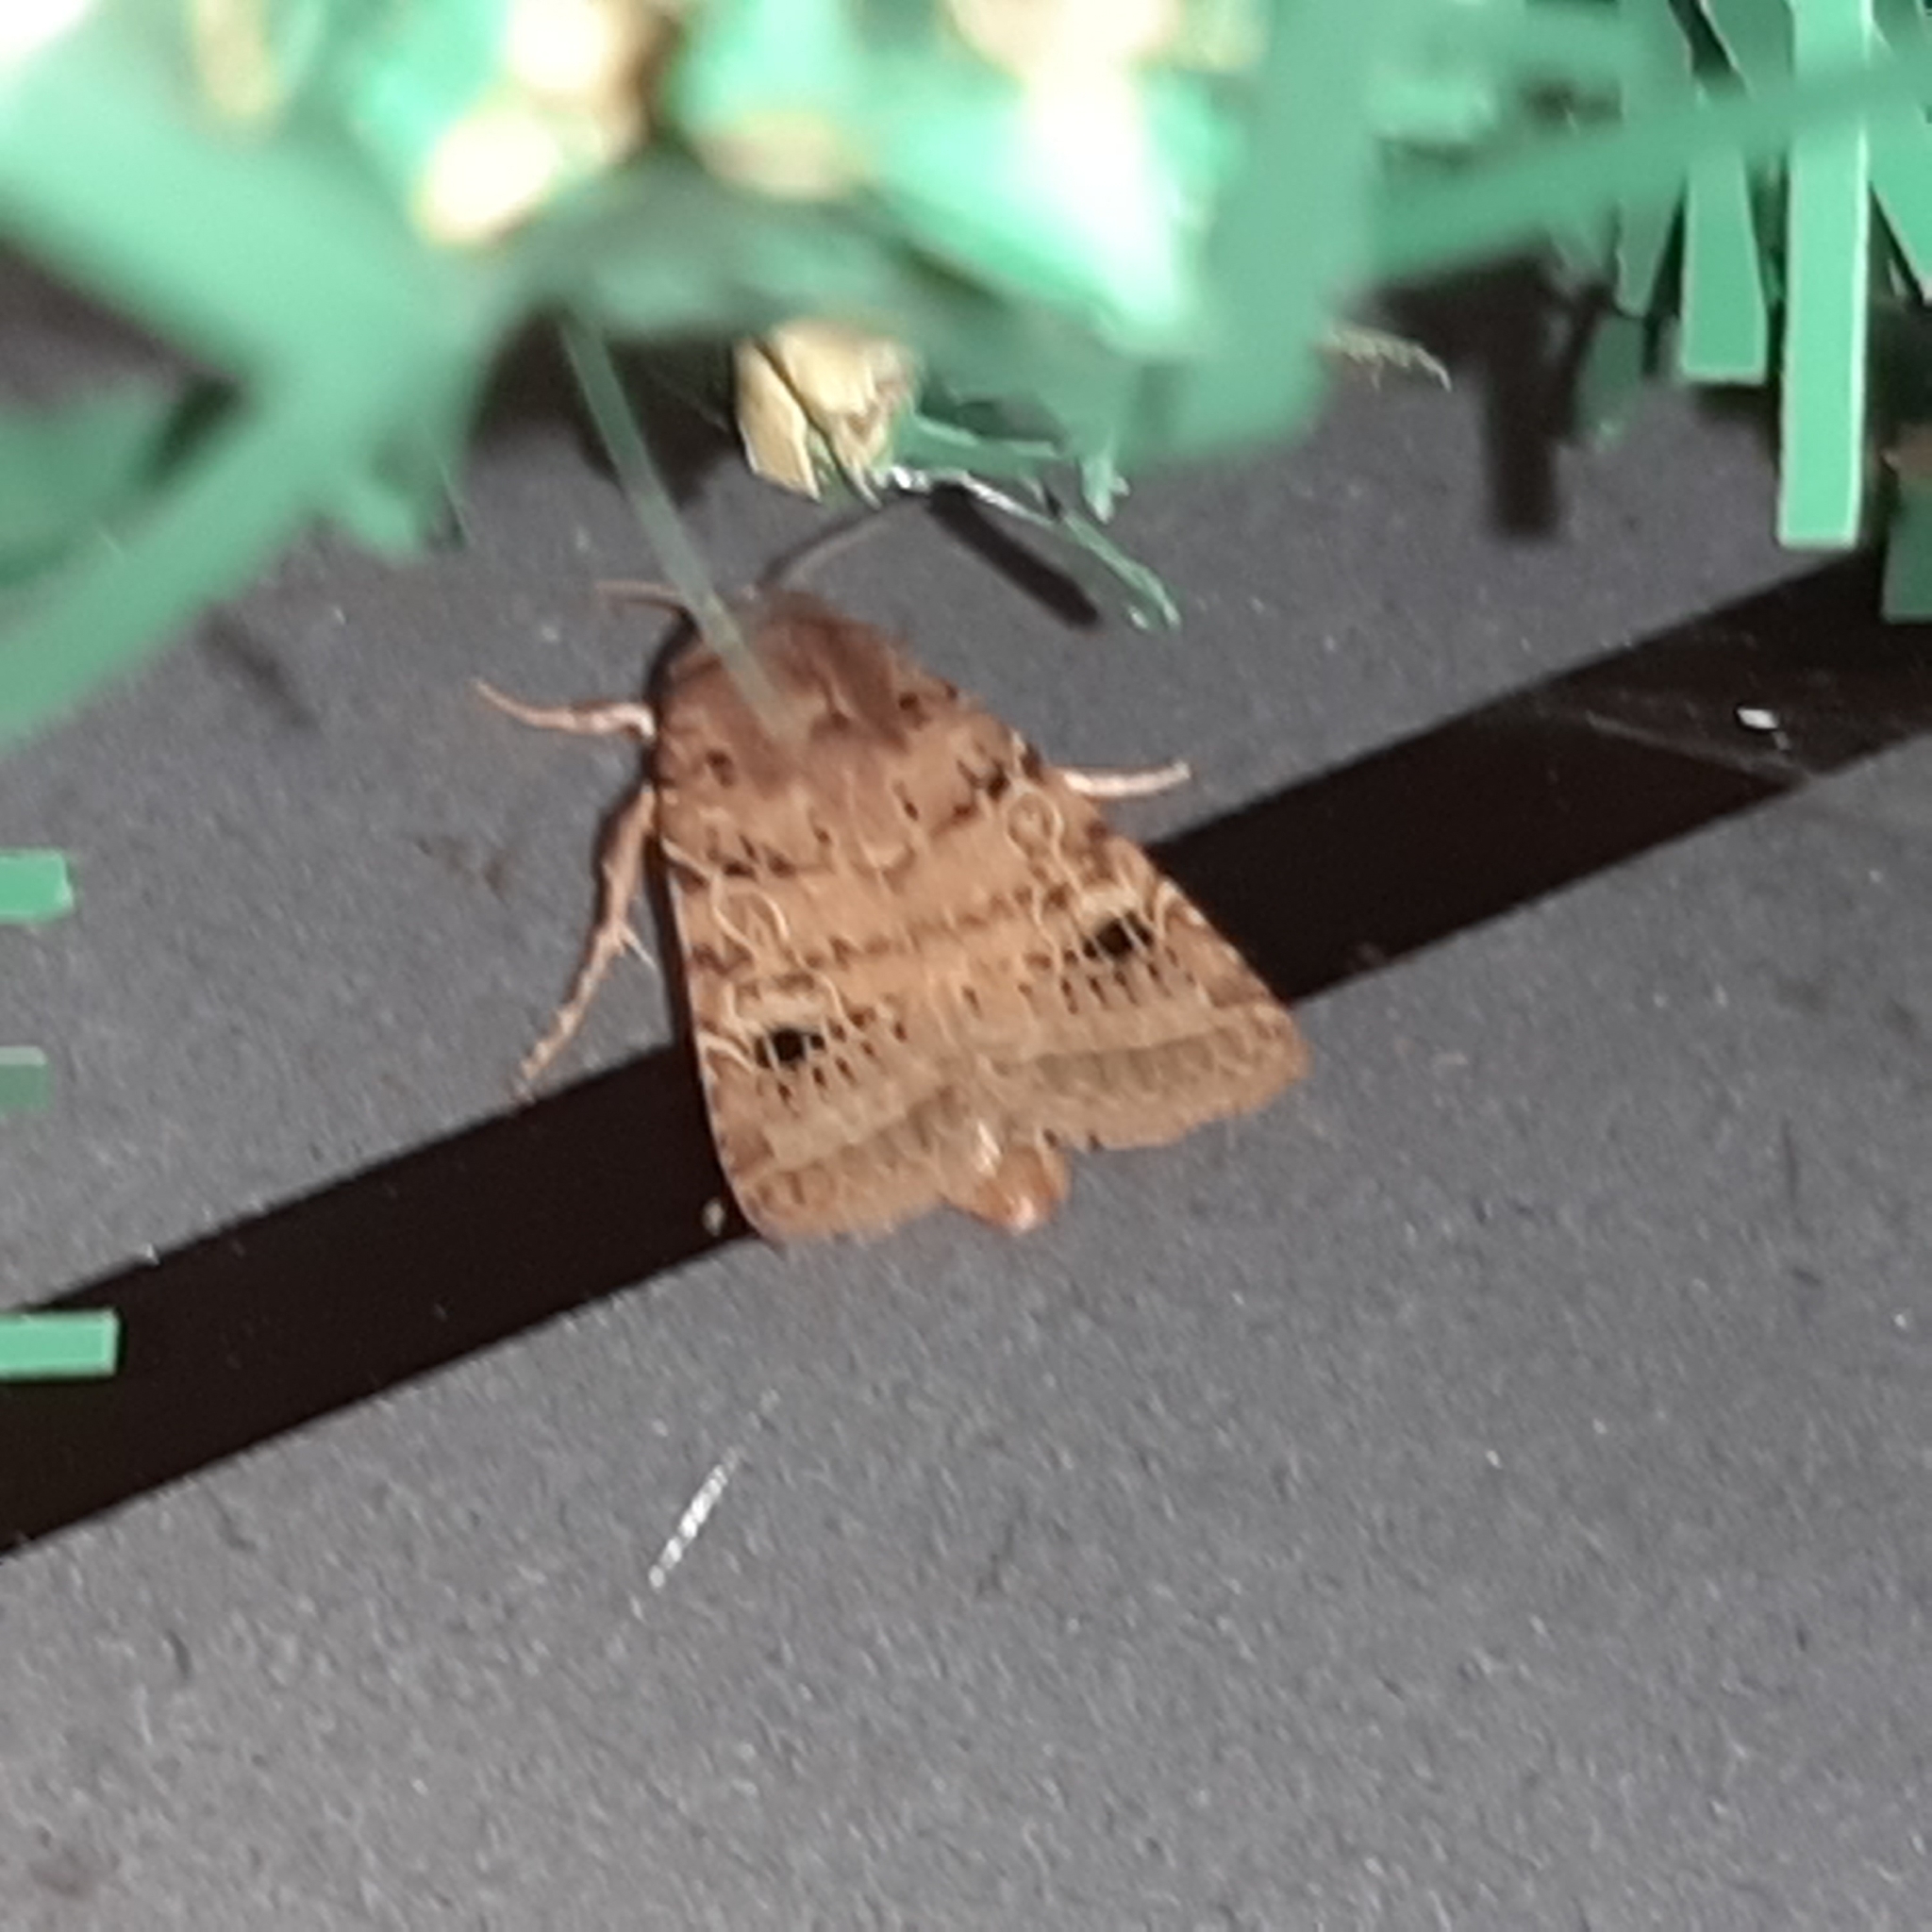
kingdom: Animalia
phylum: Arthropoda
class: Insecta
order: Lepidoptera
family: Noctuidae
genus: Orthodes
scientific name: Orthodes curvirena
